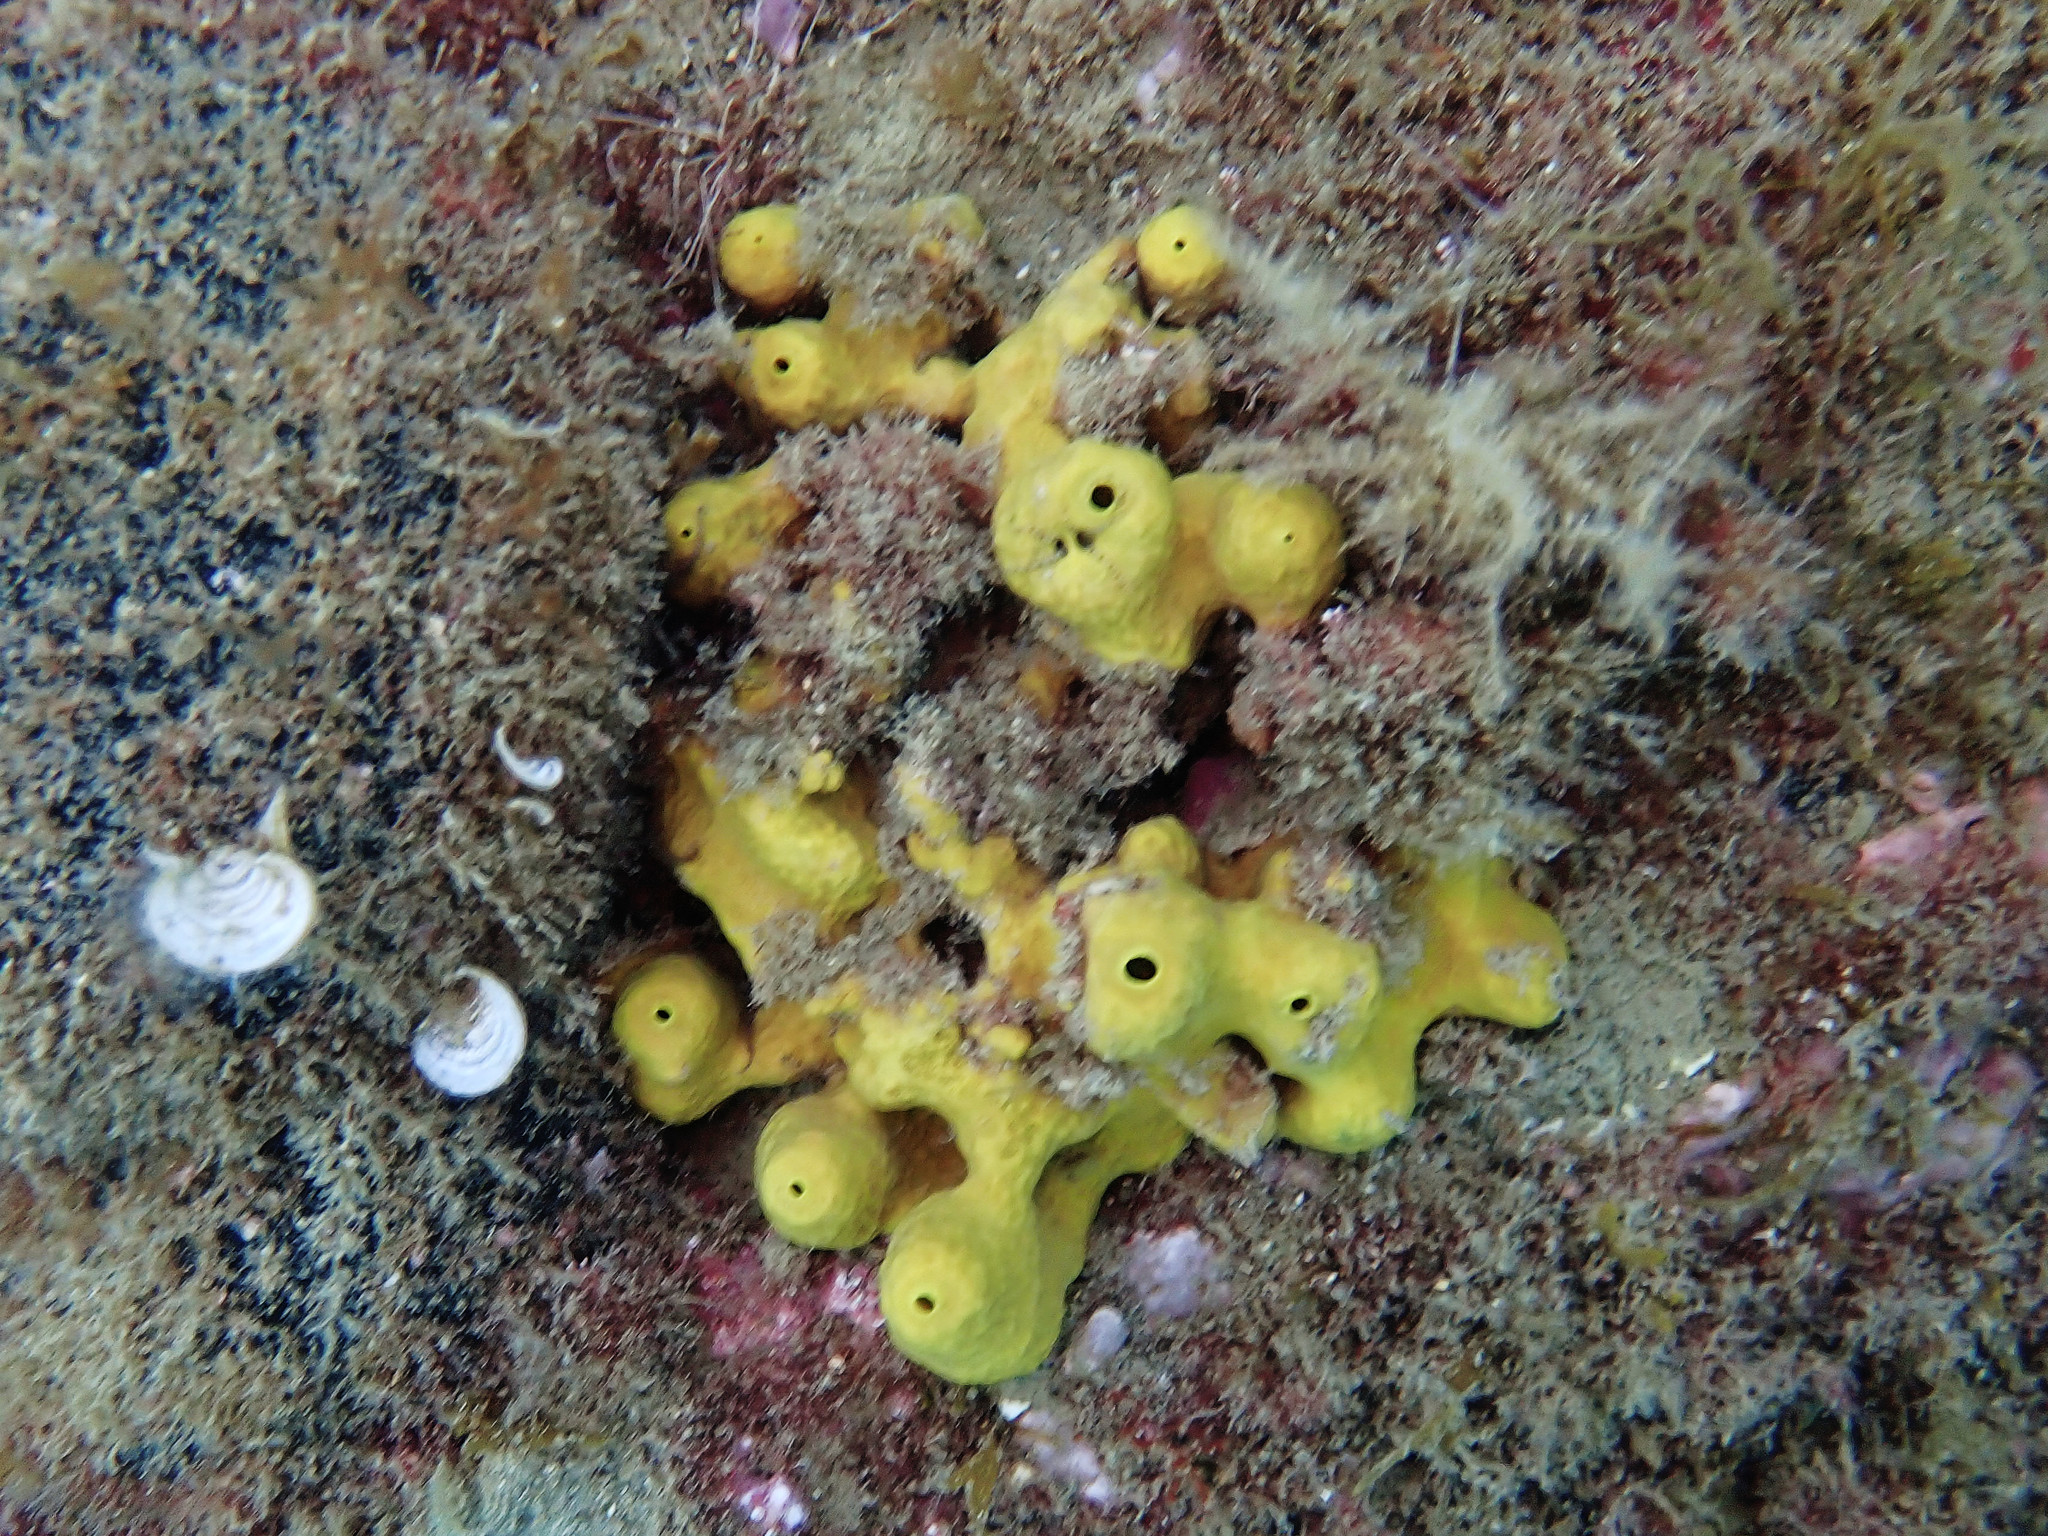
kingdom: Animalia
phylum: Porifera
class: Demospongiae
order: Verongiida
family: Aplysinidae
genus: Aplysina
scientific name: Aplysina aerophoba
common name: Aureate sponge
